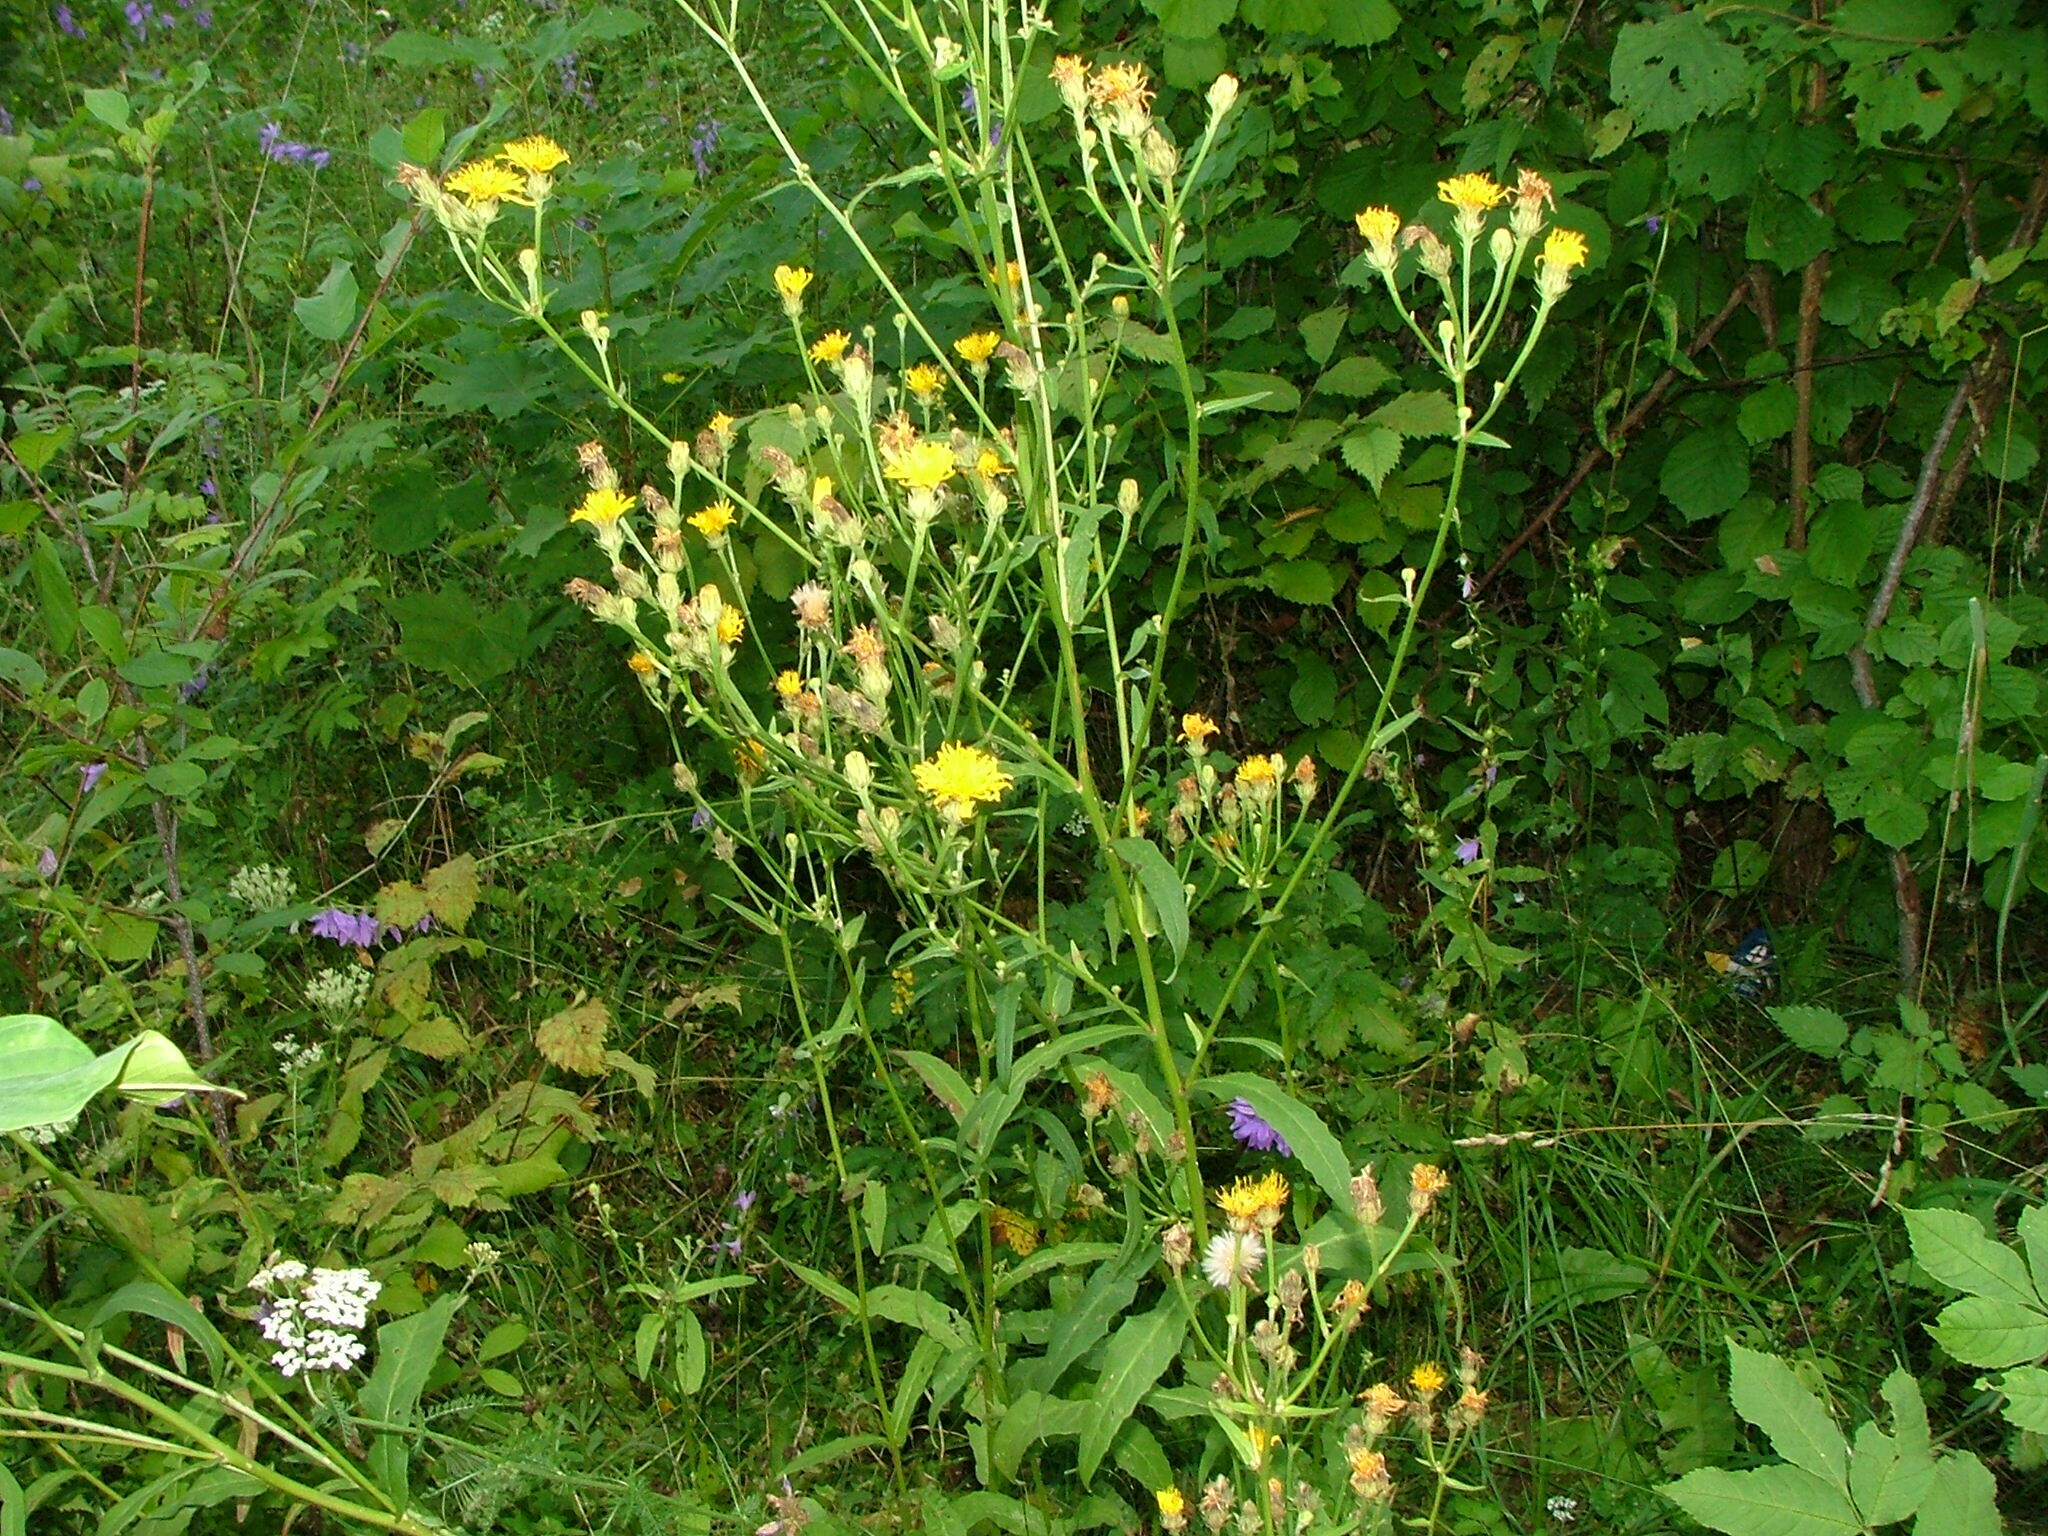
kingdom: Plantae
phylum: Tracheophyta
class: Magnoliopsida
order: Asterales
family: Asteraceae
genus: Picris
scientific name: Picris hieracioides
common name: Hawkweed oxtongue
